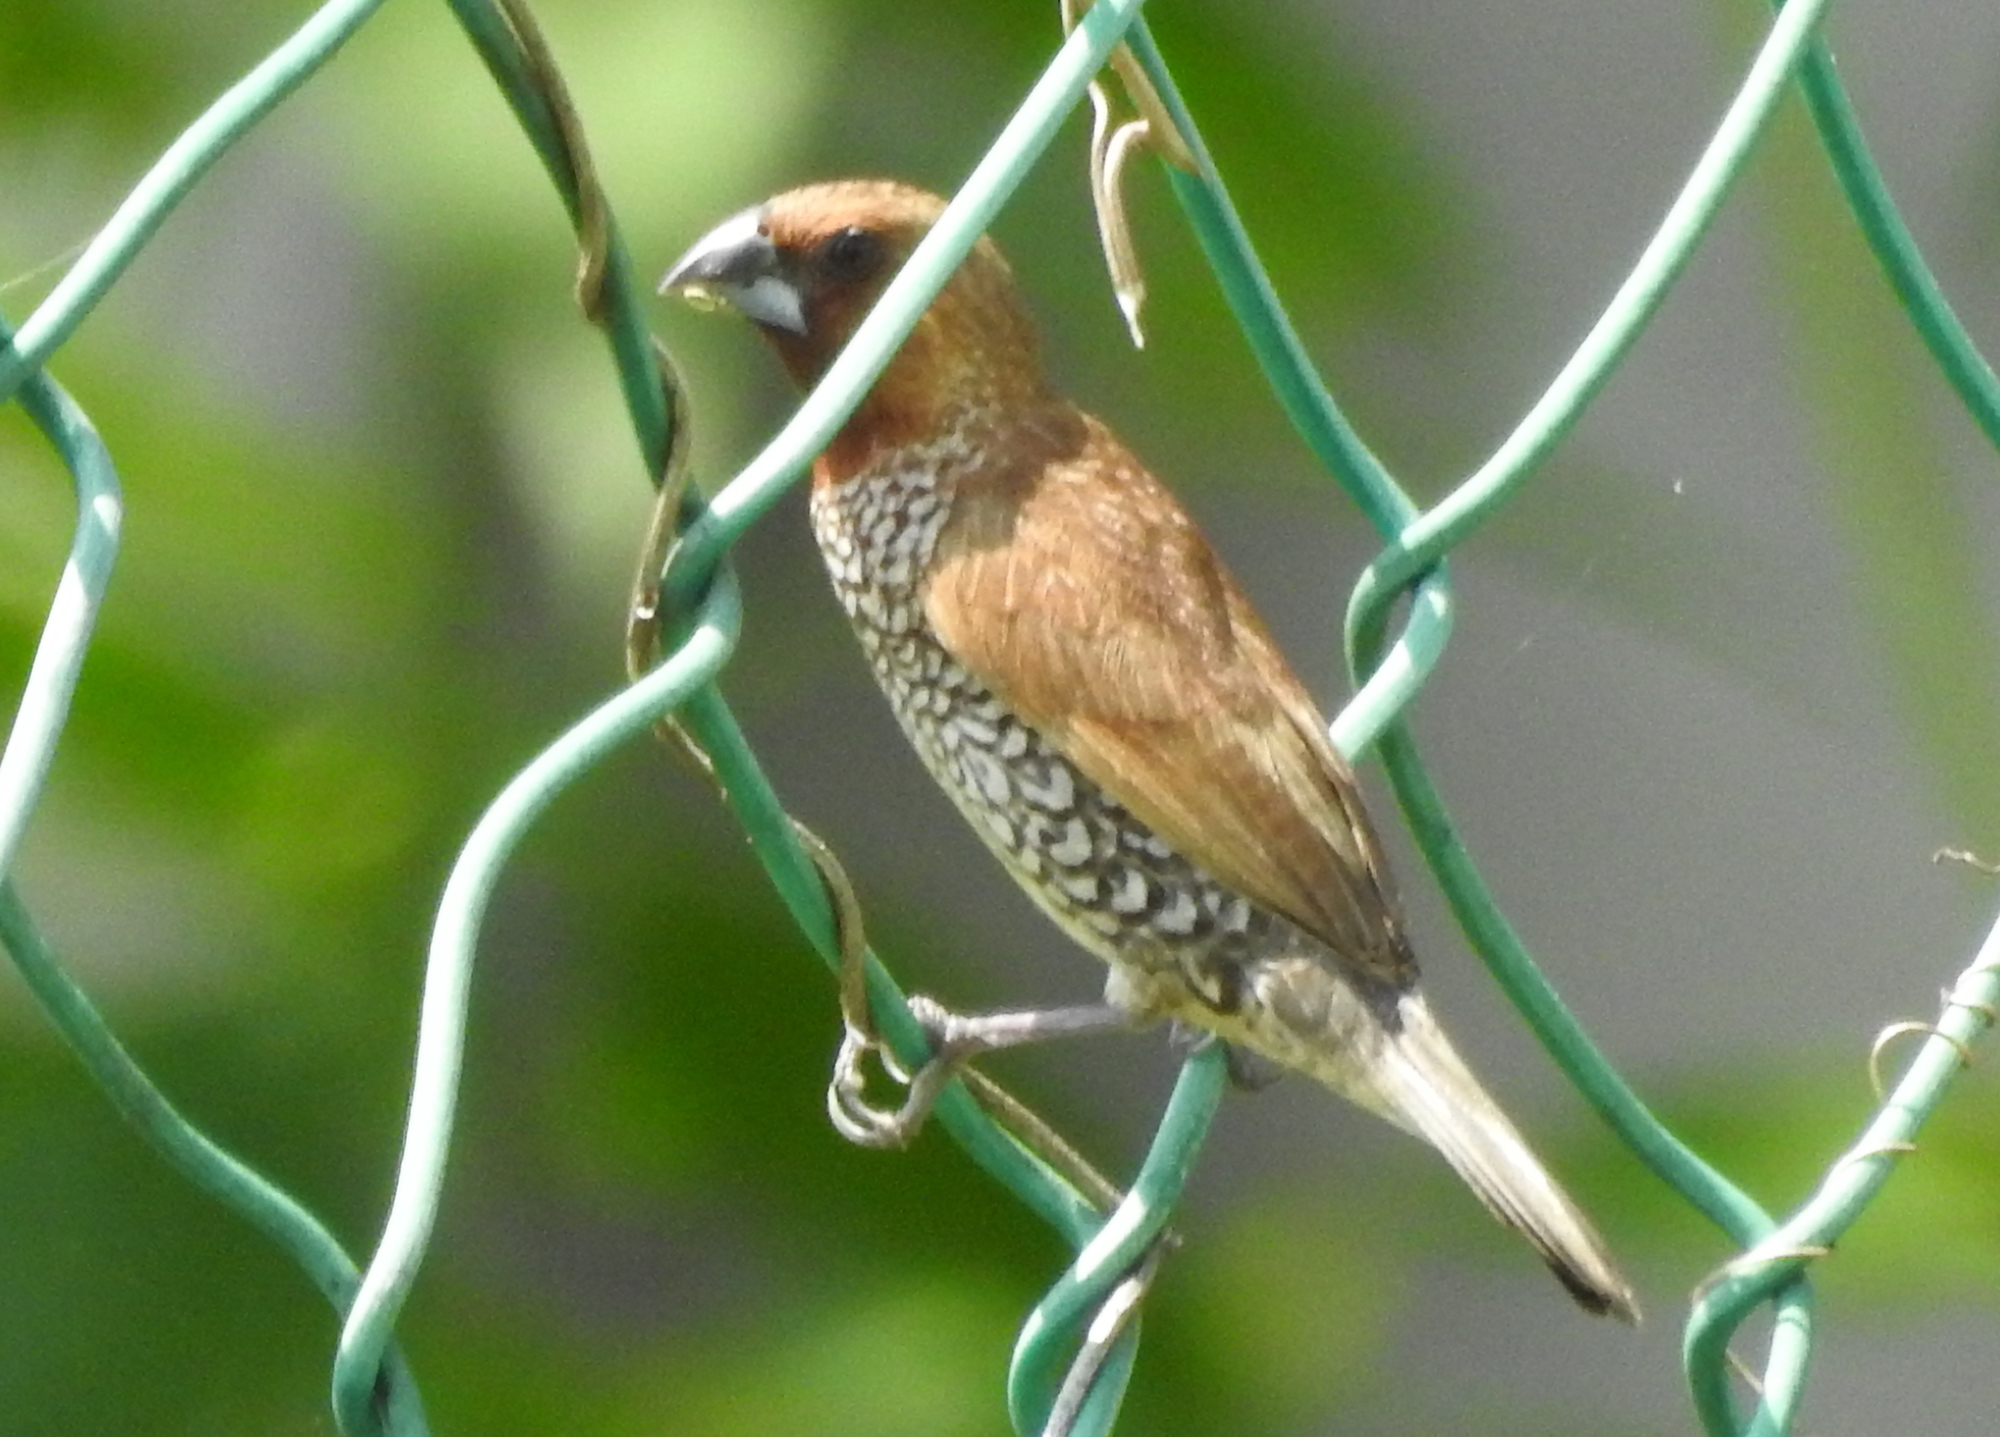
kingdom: Animalia
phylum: Chordata
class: Aves
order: Passeriformes
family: Estrildidae
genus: Lonchura
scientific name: Lonchura punctulata
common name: Scaly-breasted munia
